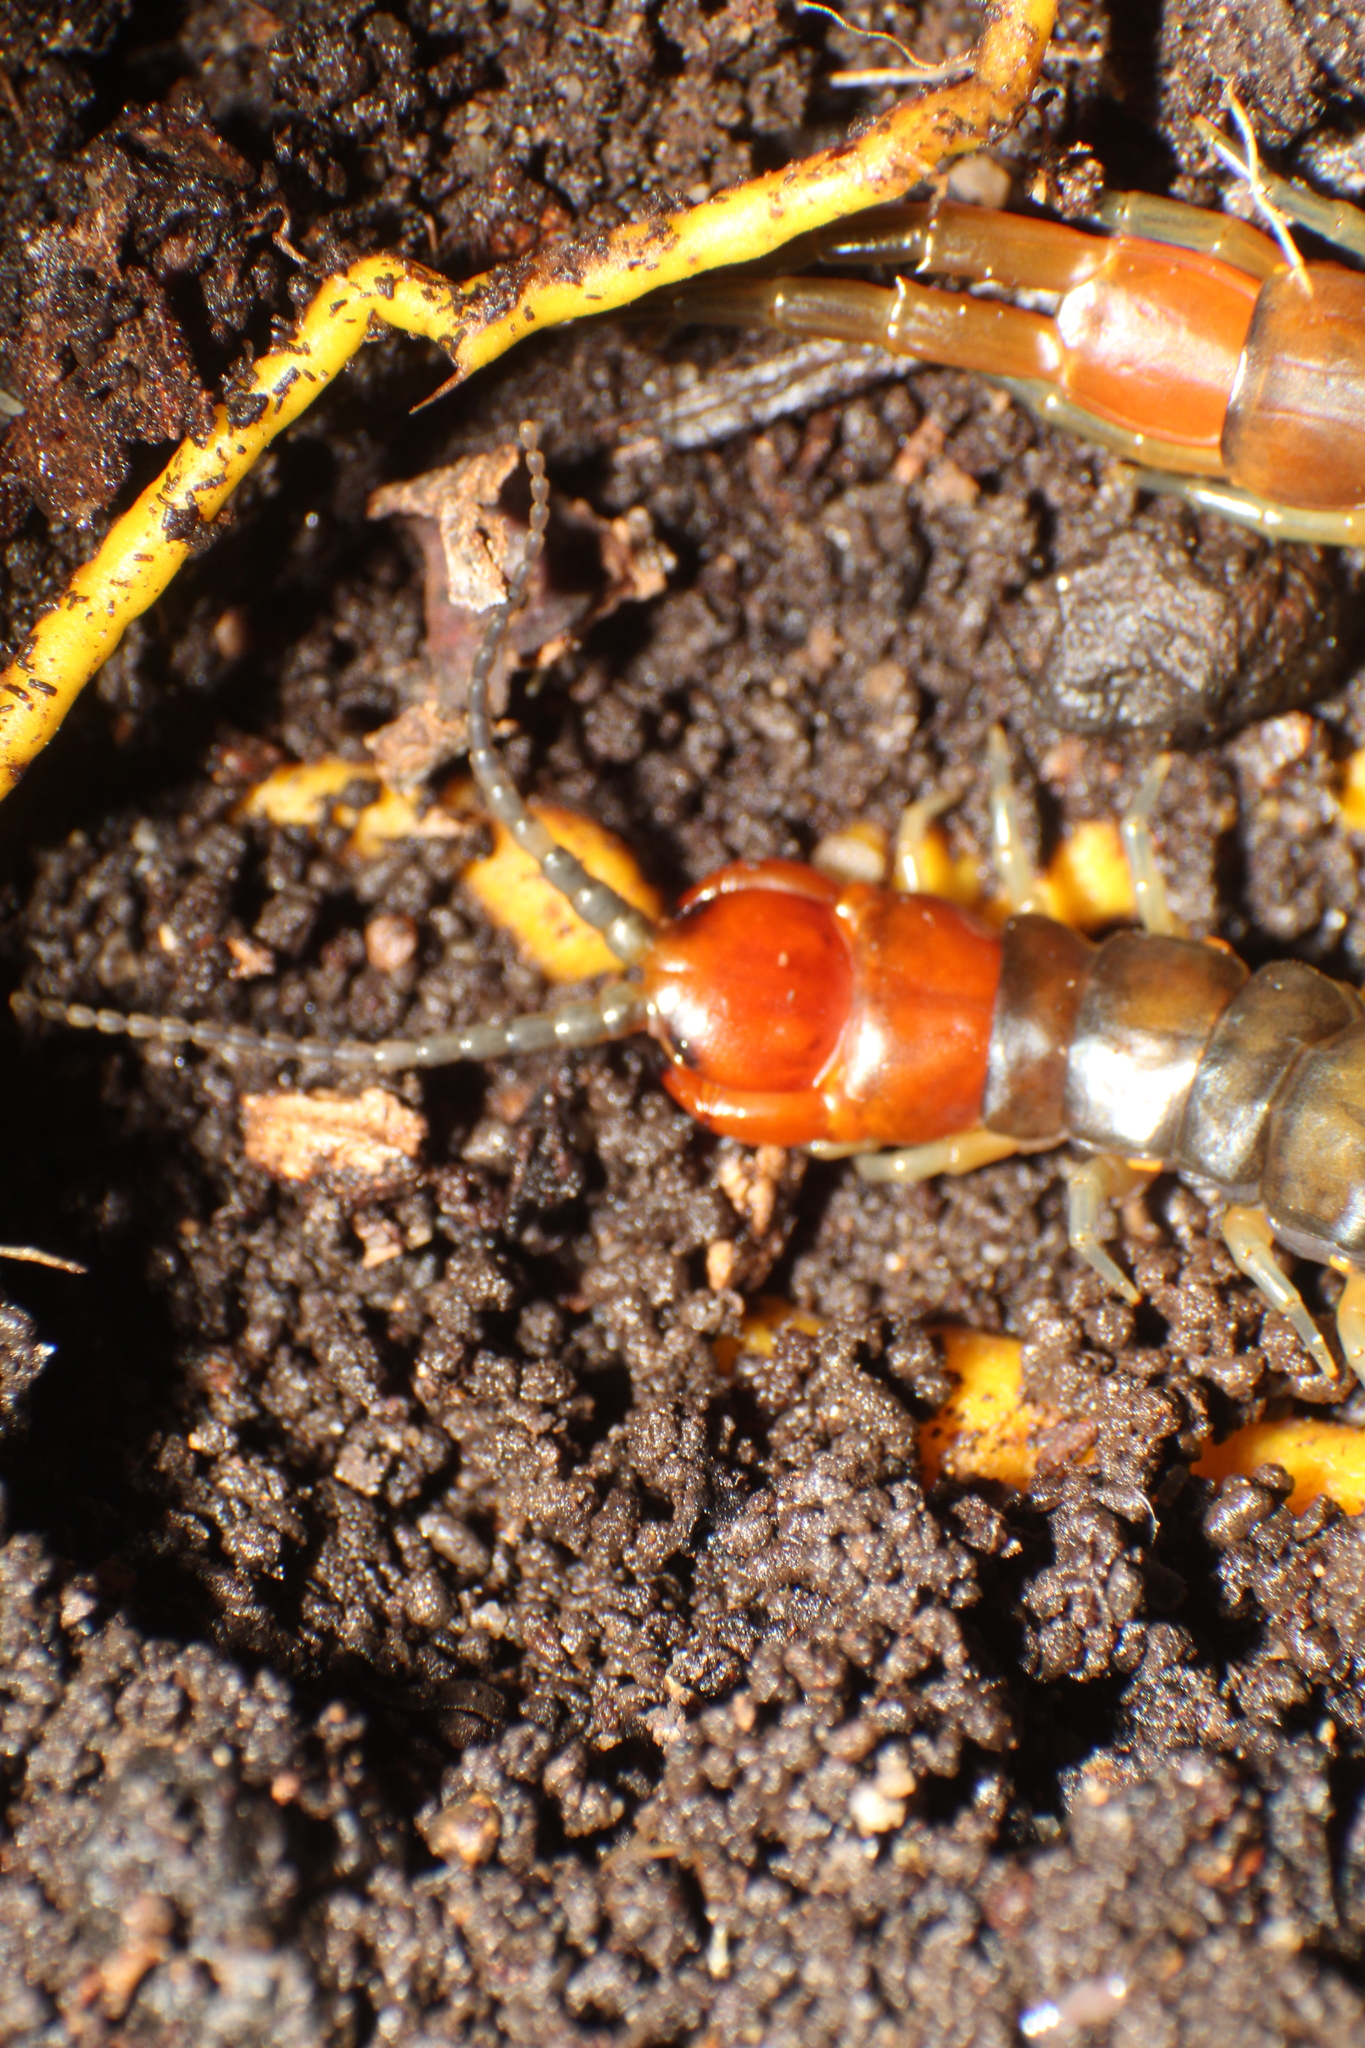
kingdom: Animalia
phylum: Arthropoda
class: Chilopoda
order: Scolopendromorpha
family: Scolopendridae
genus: Cormocephalus
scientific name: Cormocephalus aurantiipes
